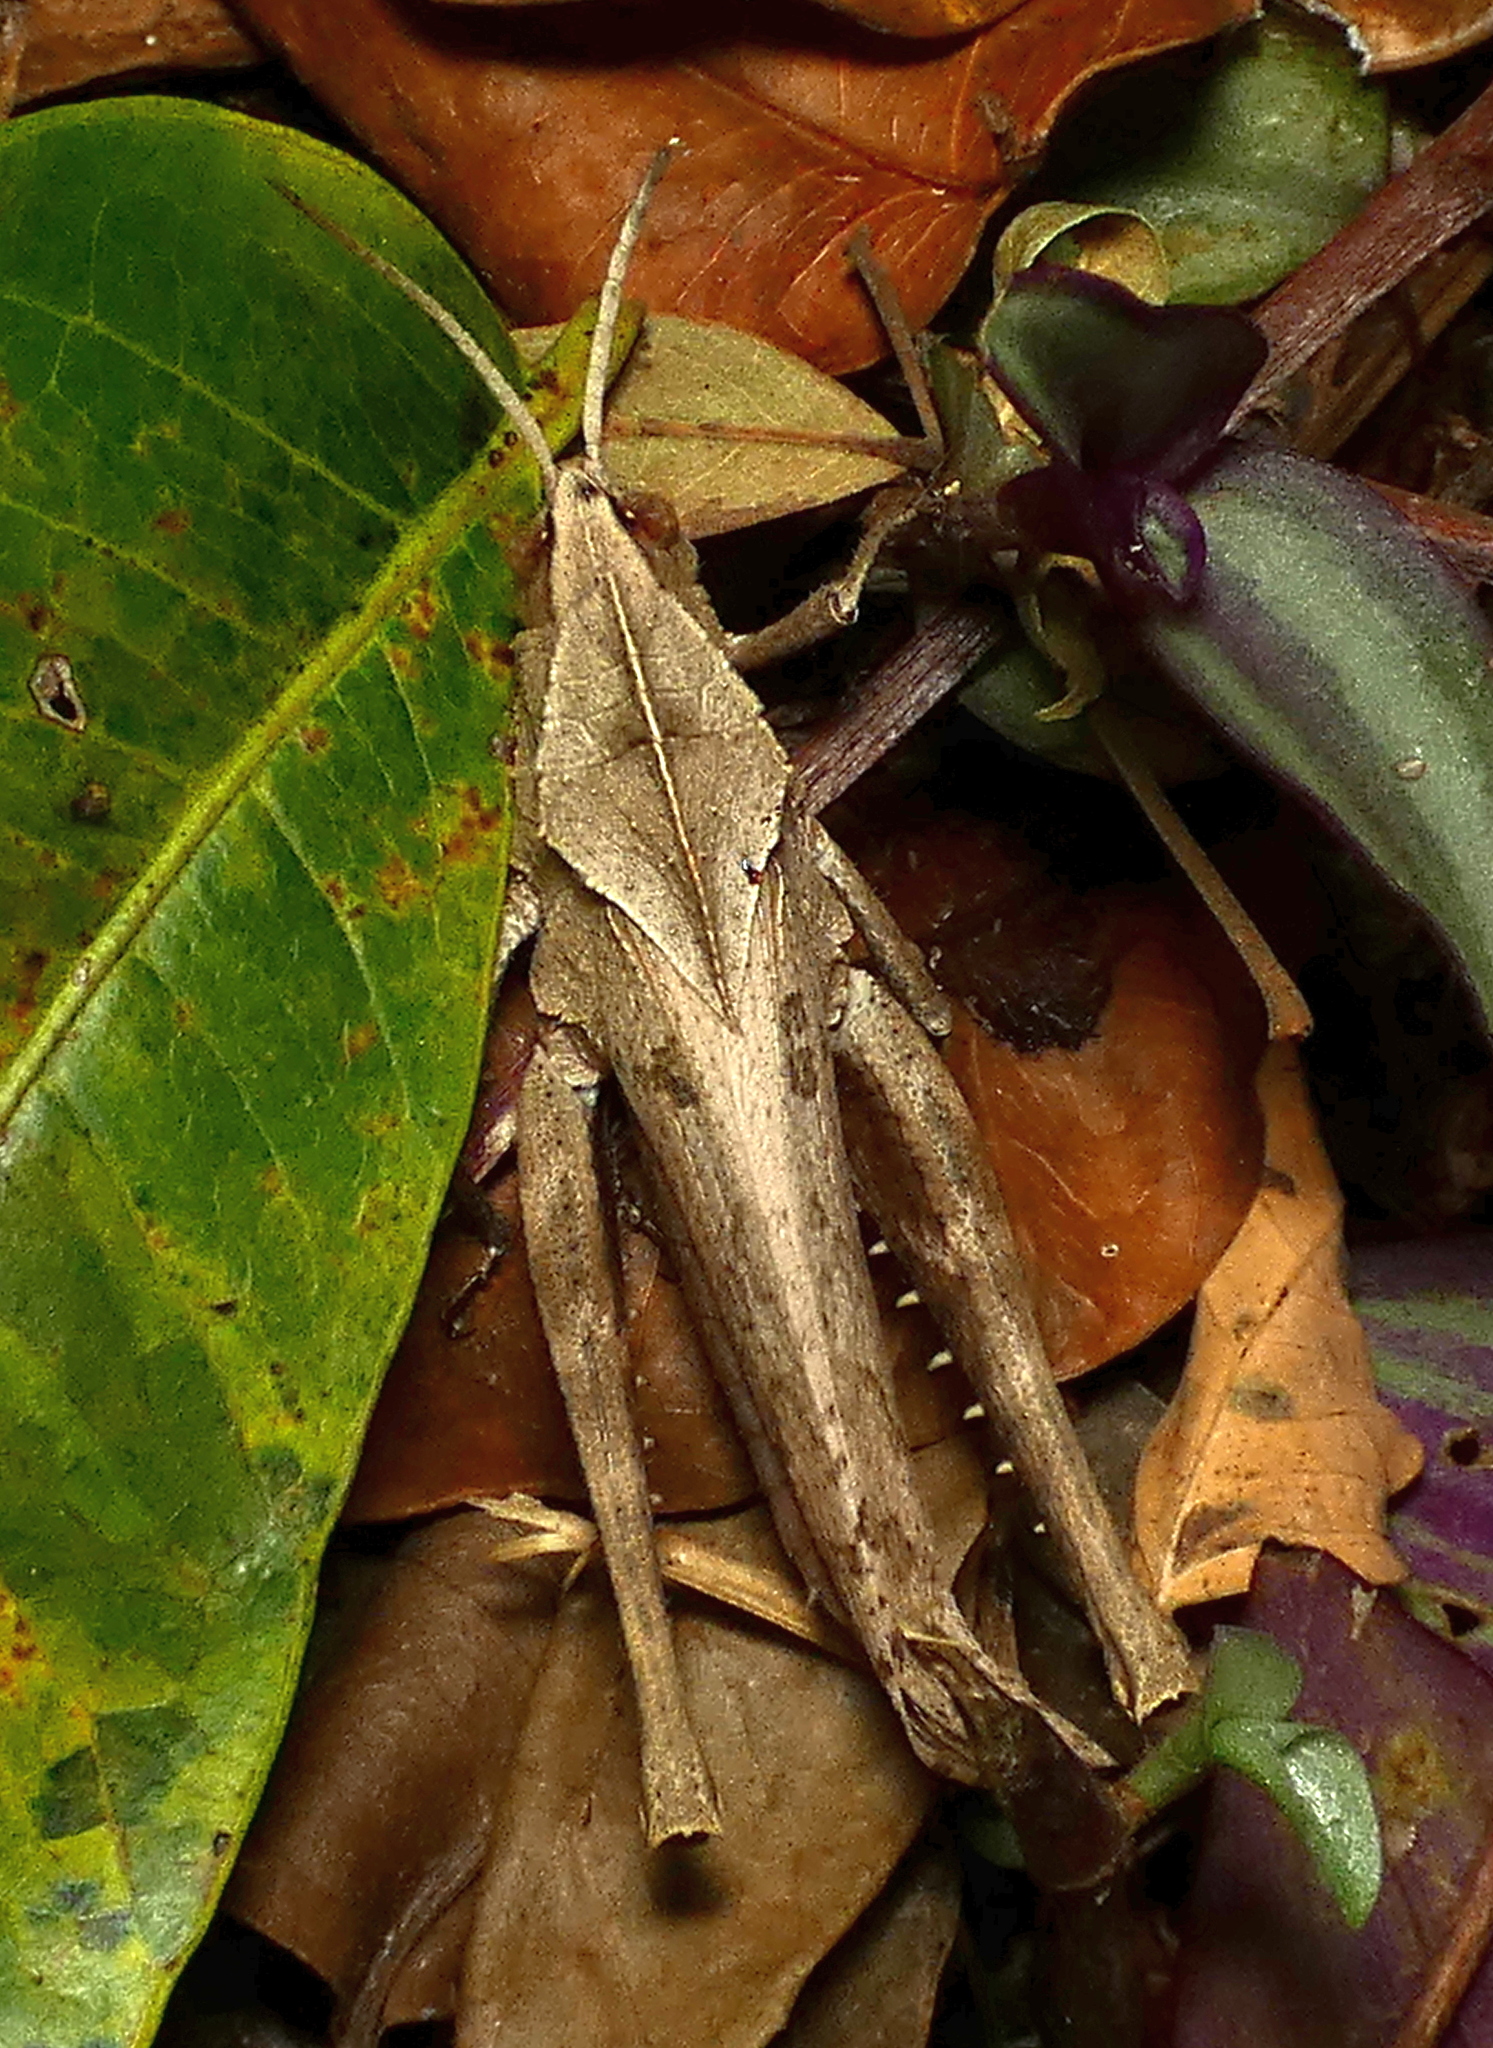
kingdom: Animalia
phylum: Arthropoda
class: Insecta
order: Orthoptera
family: Romaleidae
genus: Xyleus
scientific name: Xyleus discoideus
